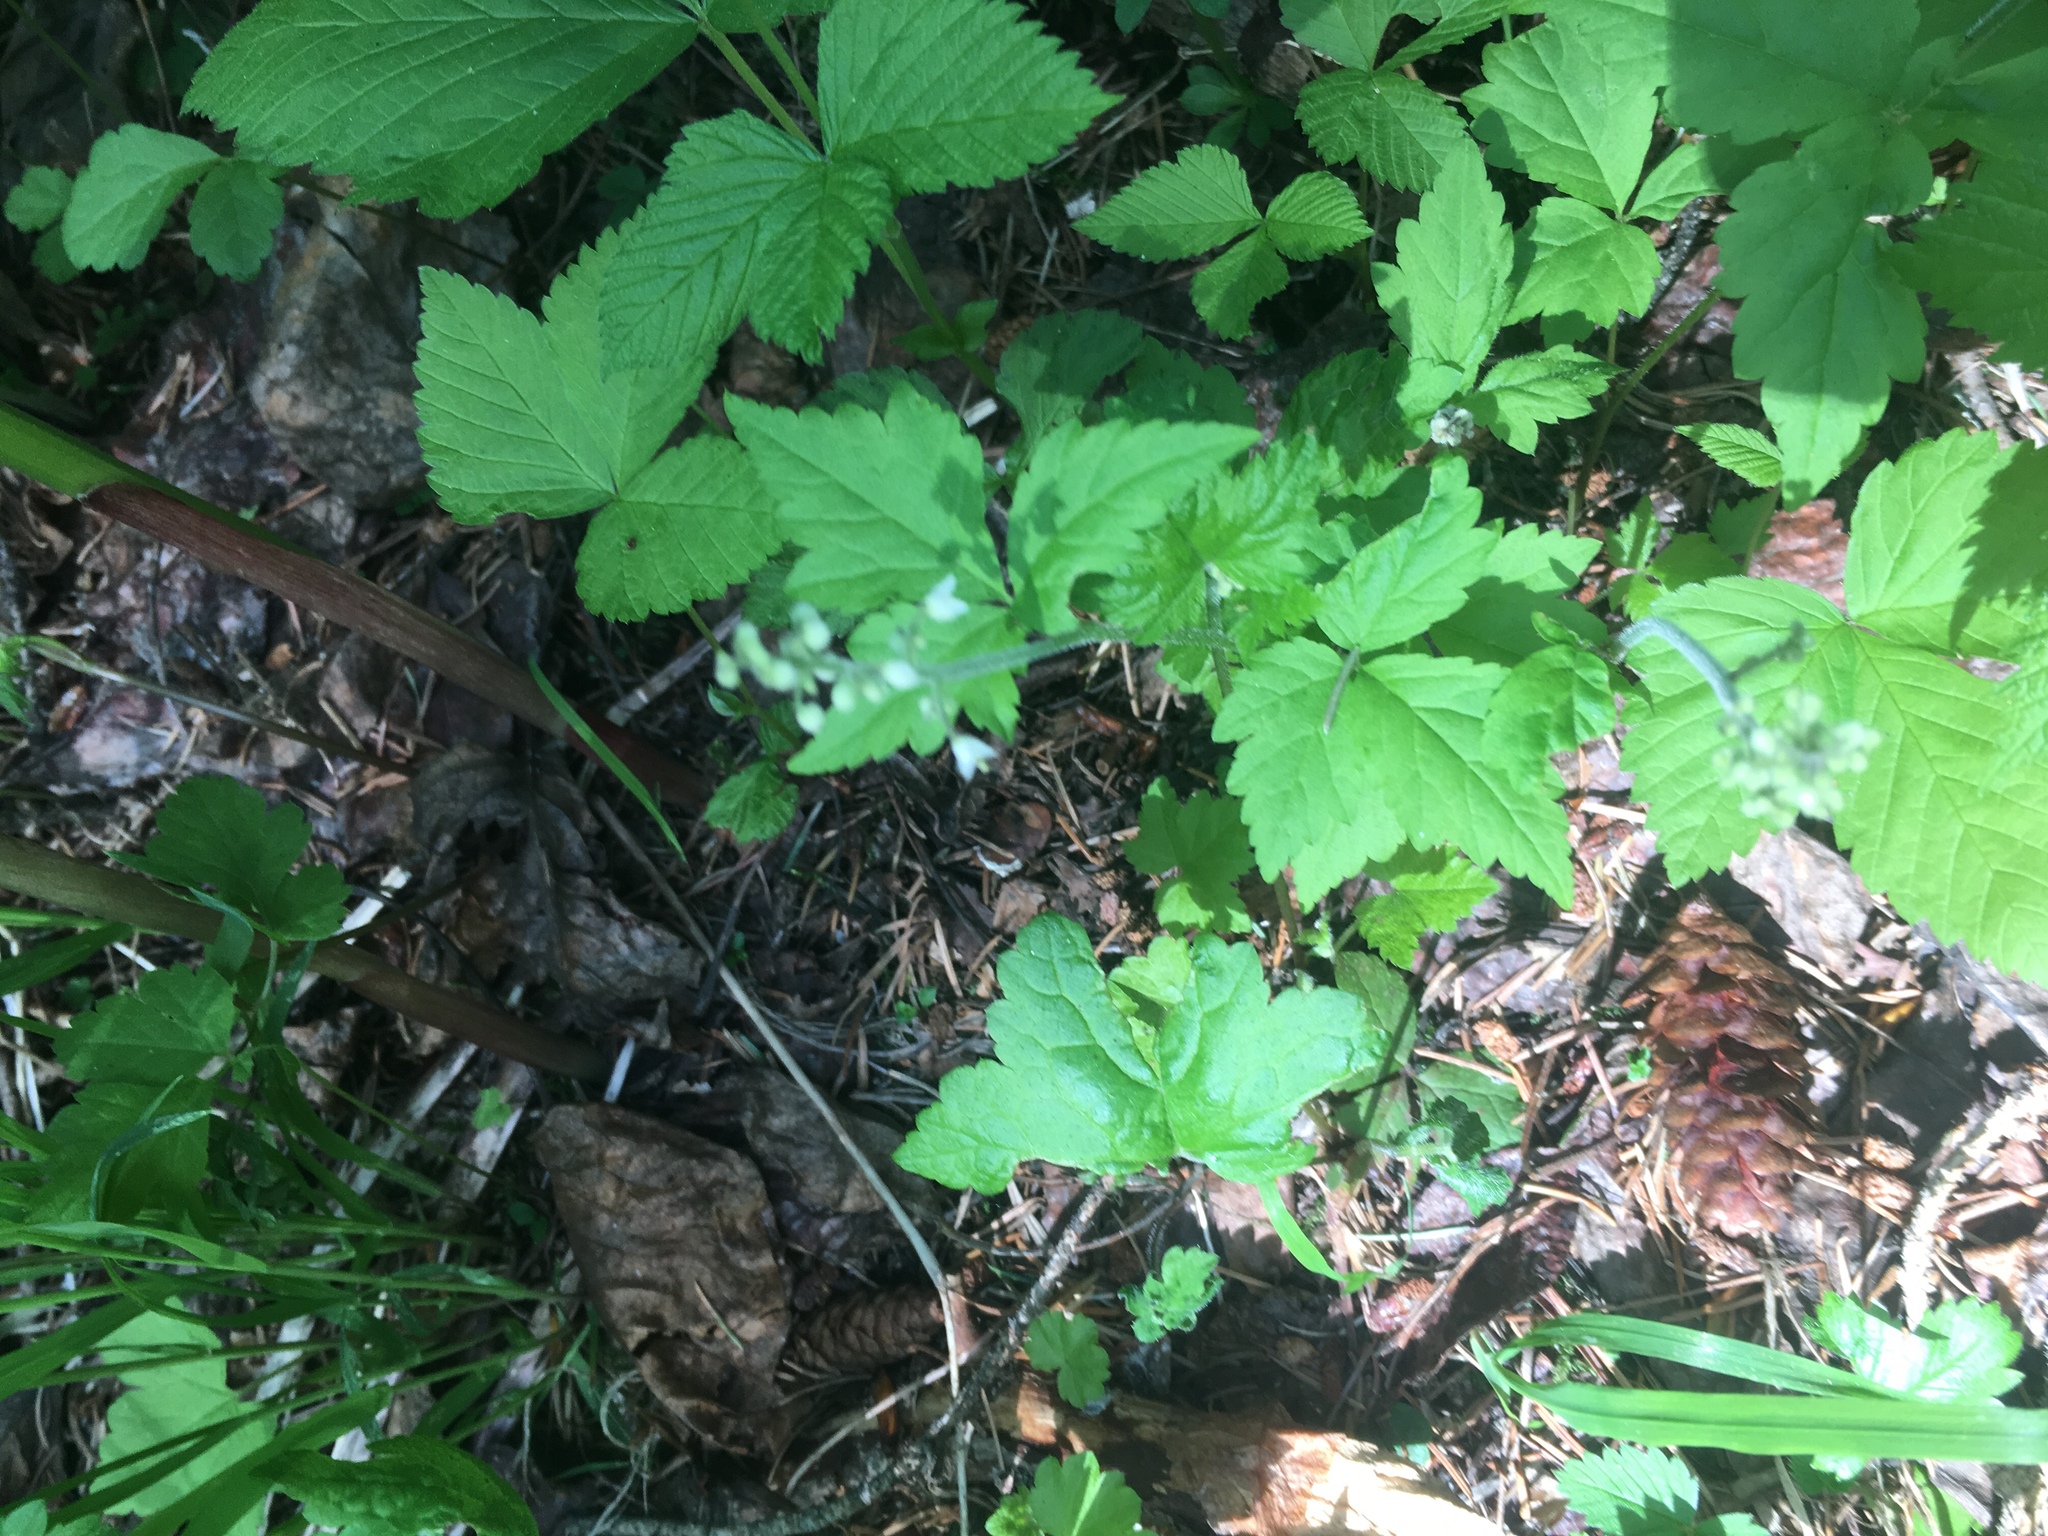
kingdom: Plantae
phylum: Tracheophyta
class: Magnoliopsida
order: Saxifragales
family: Saxifragaceae
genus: Tiarella
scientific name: Tiarella trifoliata
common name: Sugar-scoop
